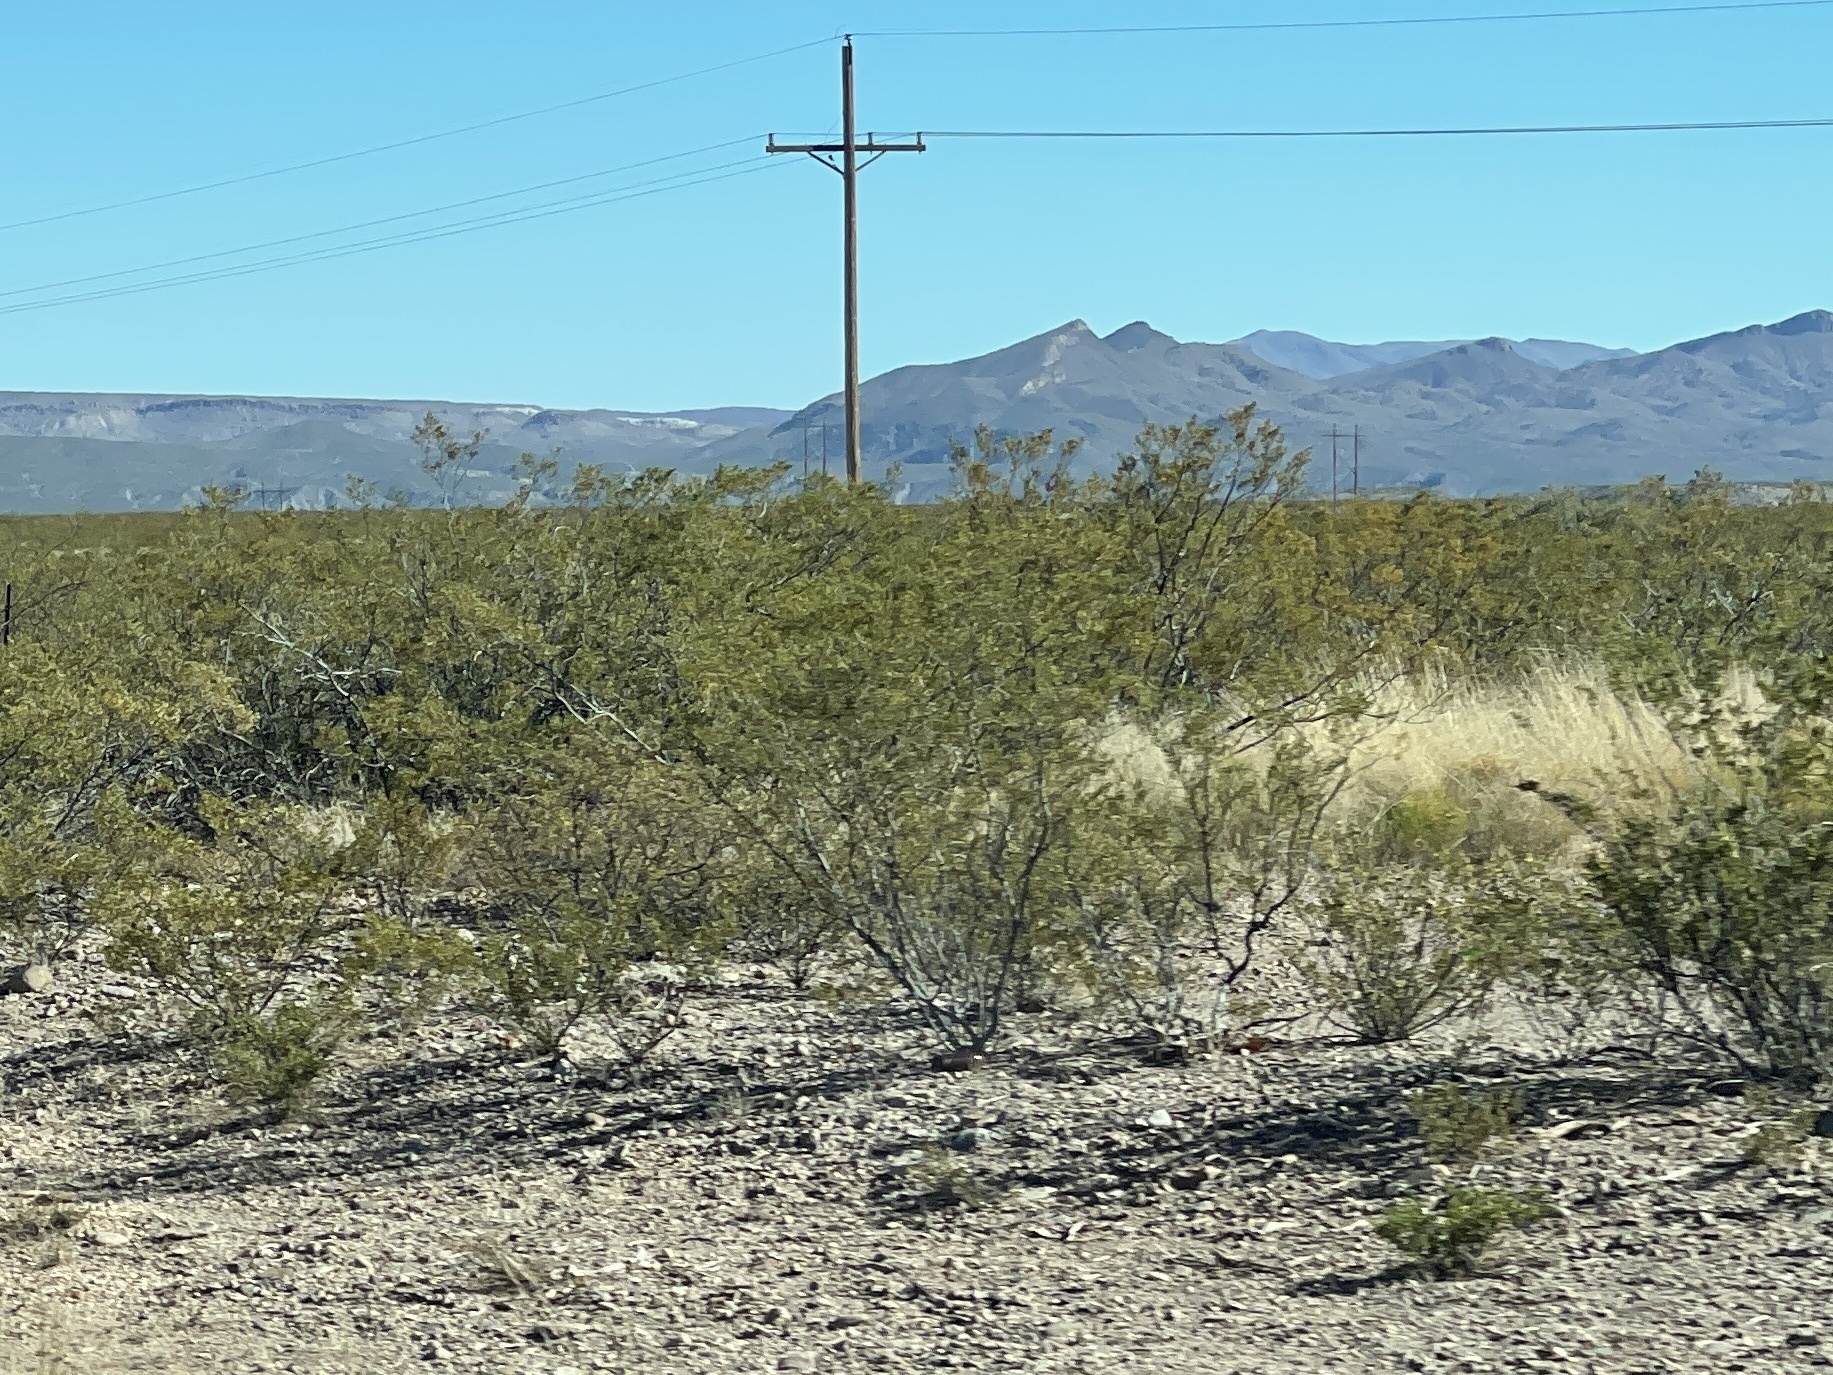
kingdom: Plantae
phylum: Tracheophyta
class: Magnoliopsida
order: Zygophyllales
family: Zygophyllaceae
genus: Larrea
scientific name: Larrea tridentata
